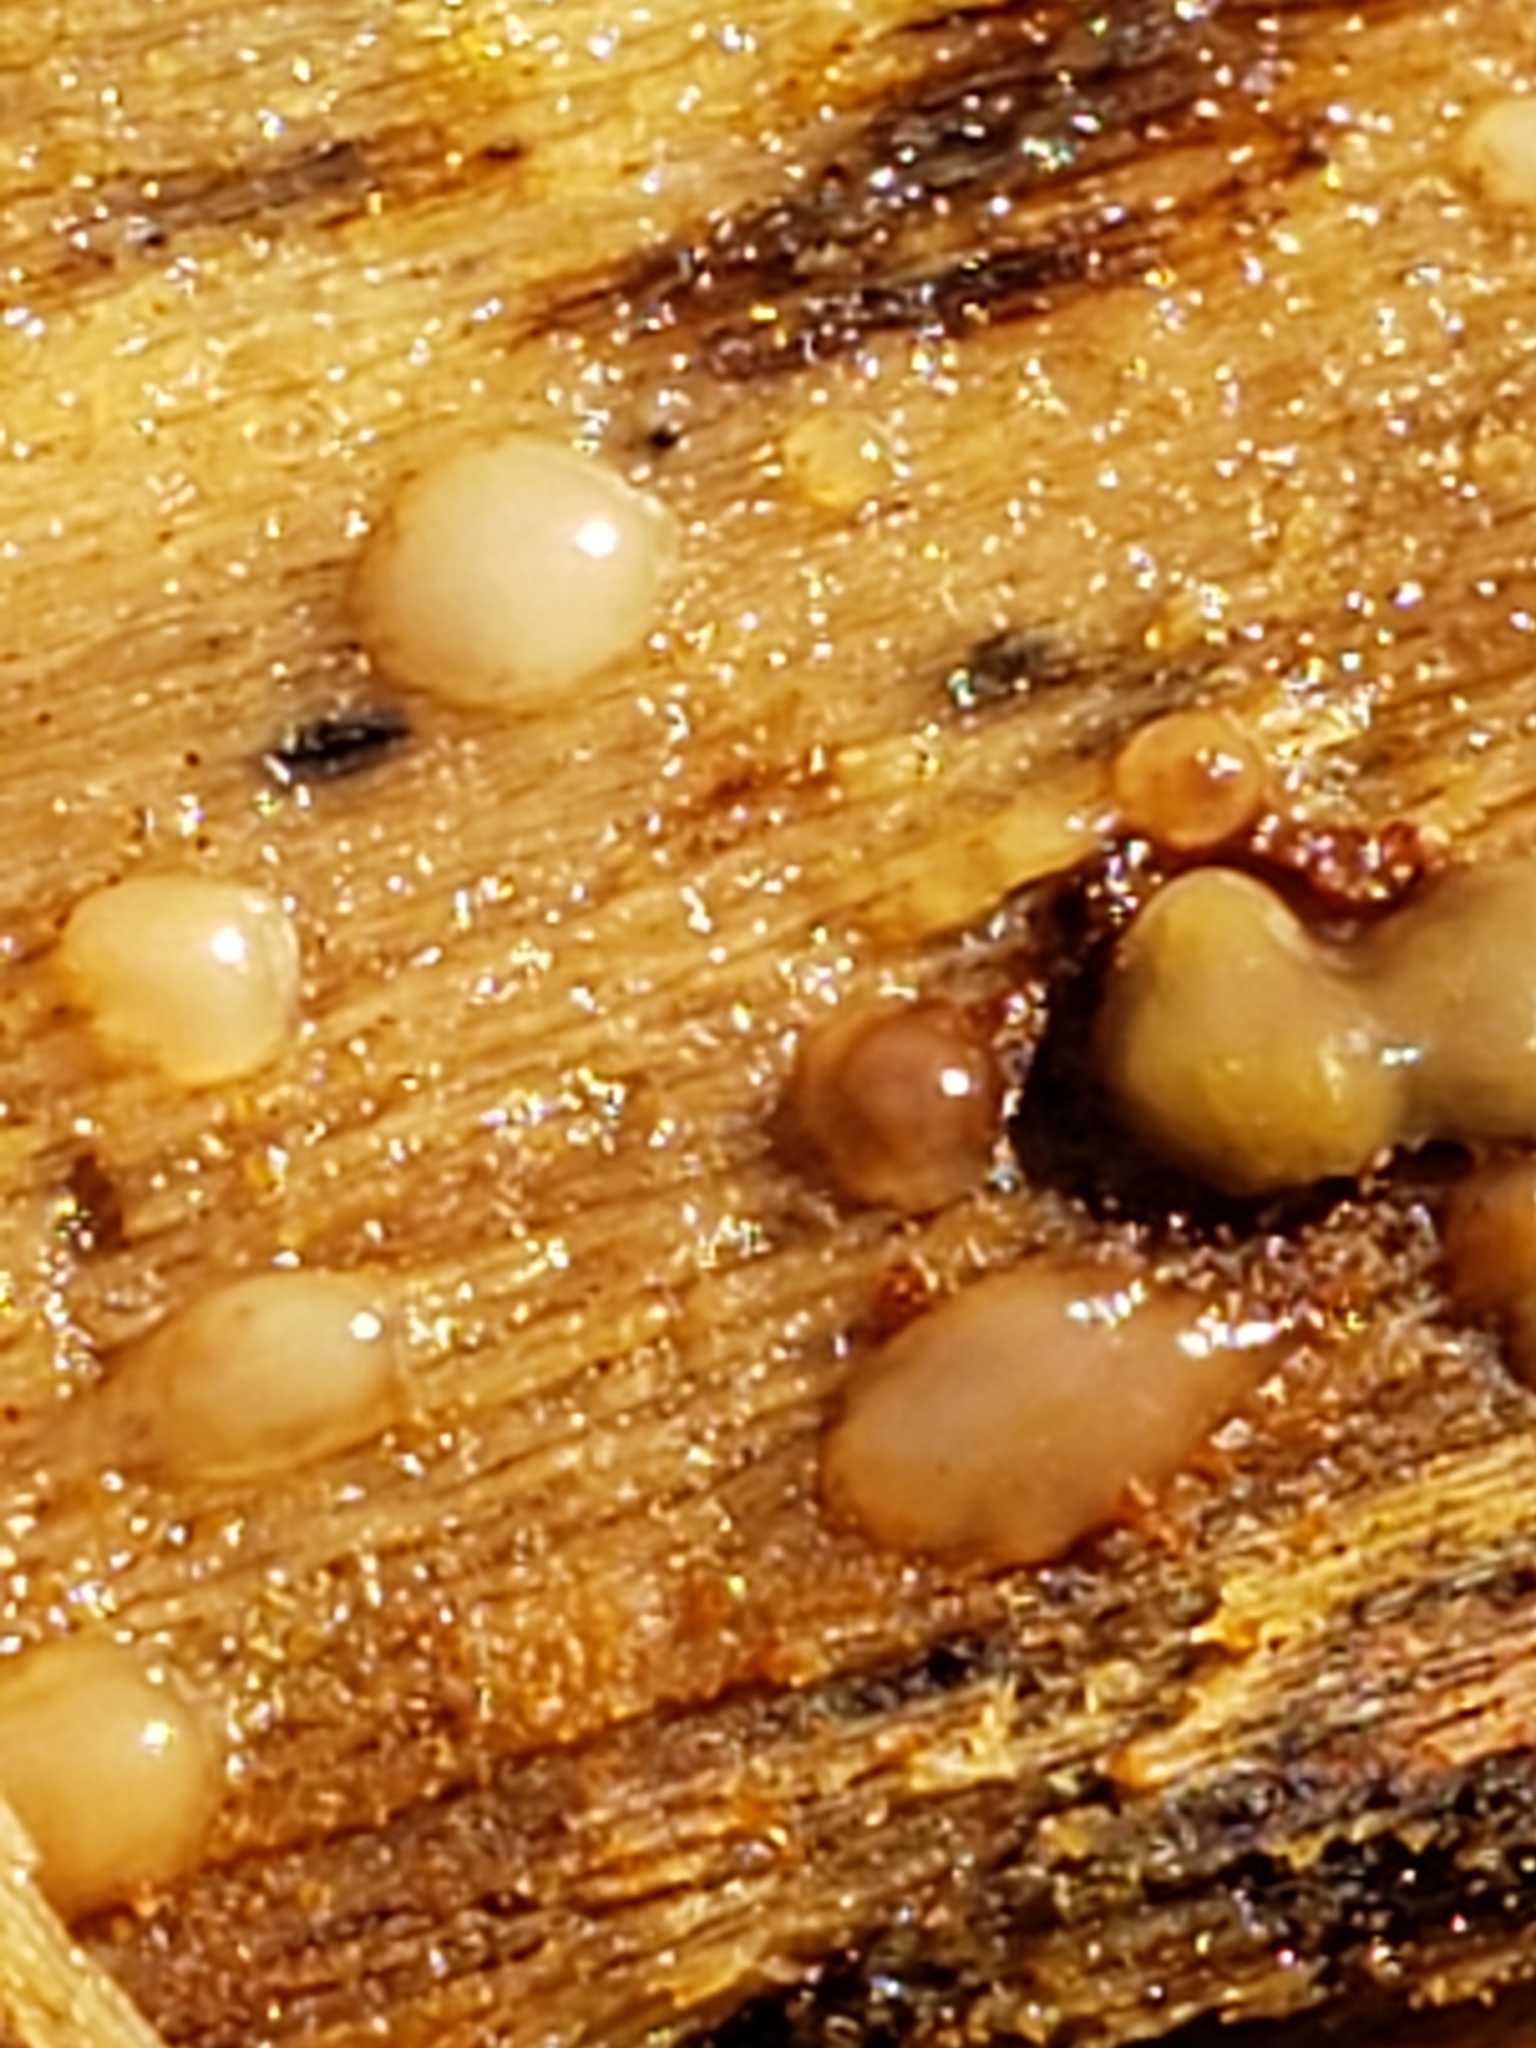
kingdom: Fungi
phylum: Basidiomycota
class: Atractiellomycetes
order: Atractiellales
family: Phleogenaceae
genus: Helicogloea
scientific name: Helicogloea compressa
